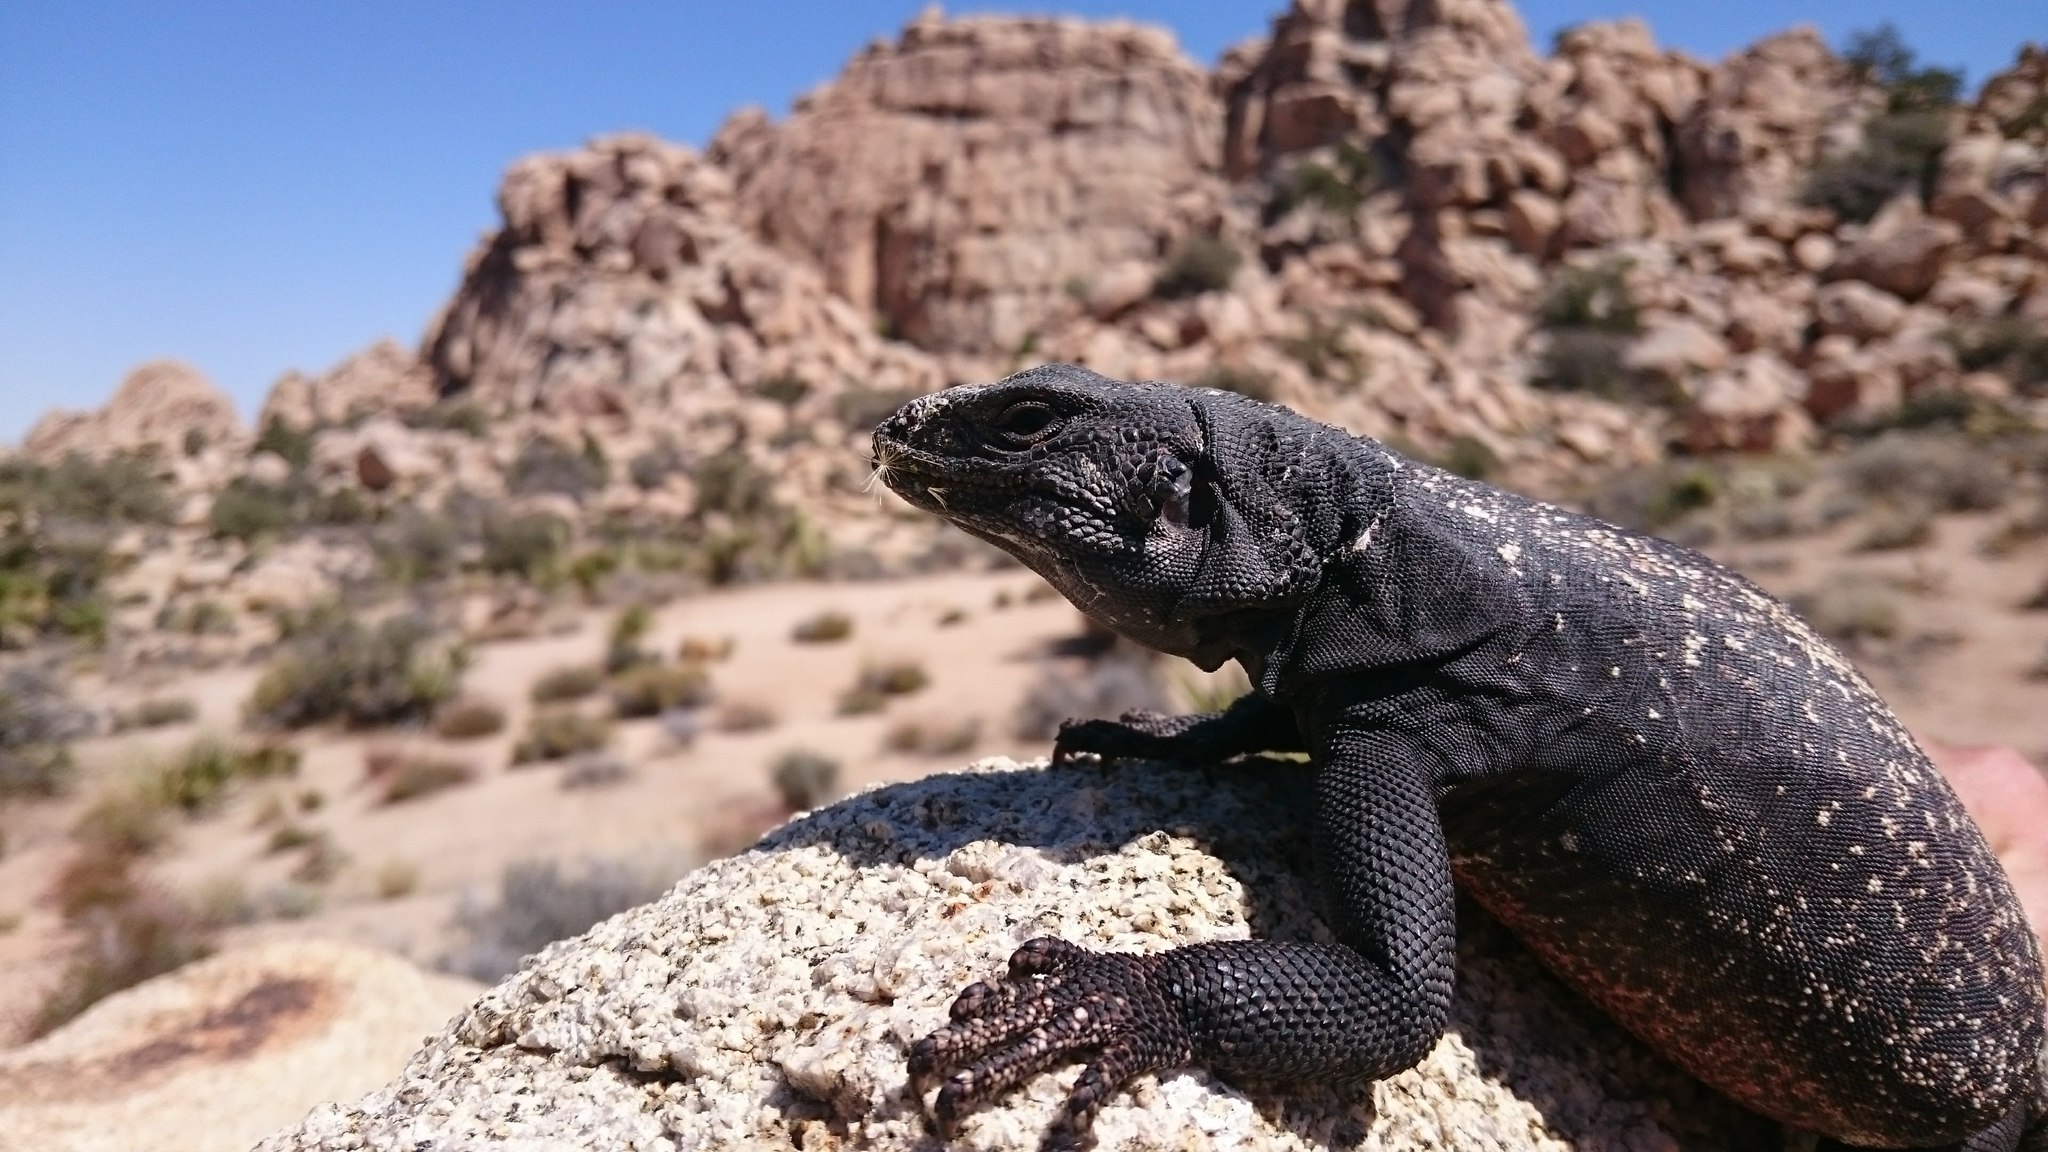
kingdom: Animalia
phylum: Chordata
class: Squamata
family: Iguanidae
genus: Sauromalus
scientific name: Sauromalus ater
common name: Northern chuckwalla
